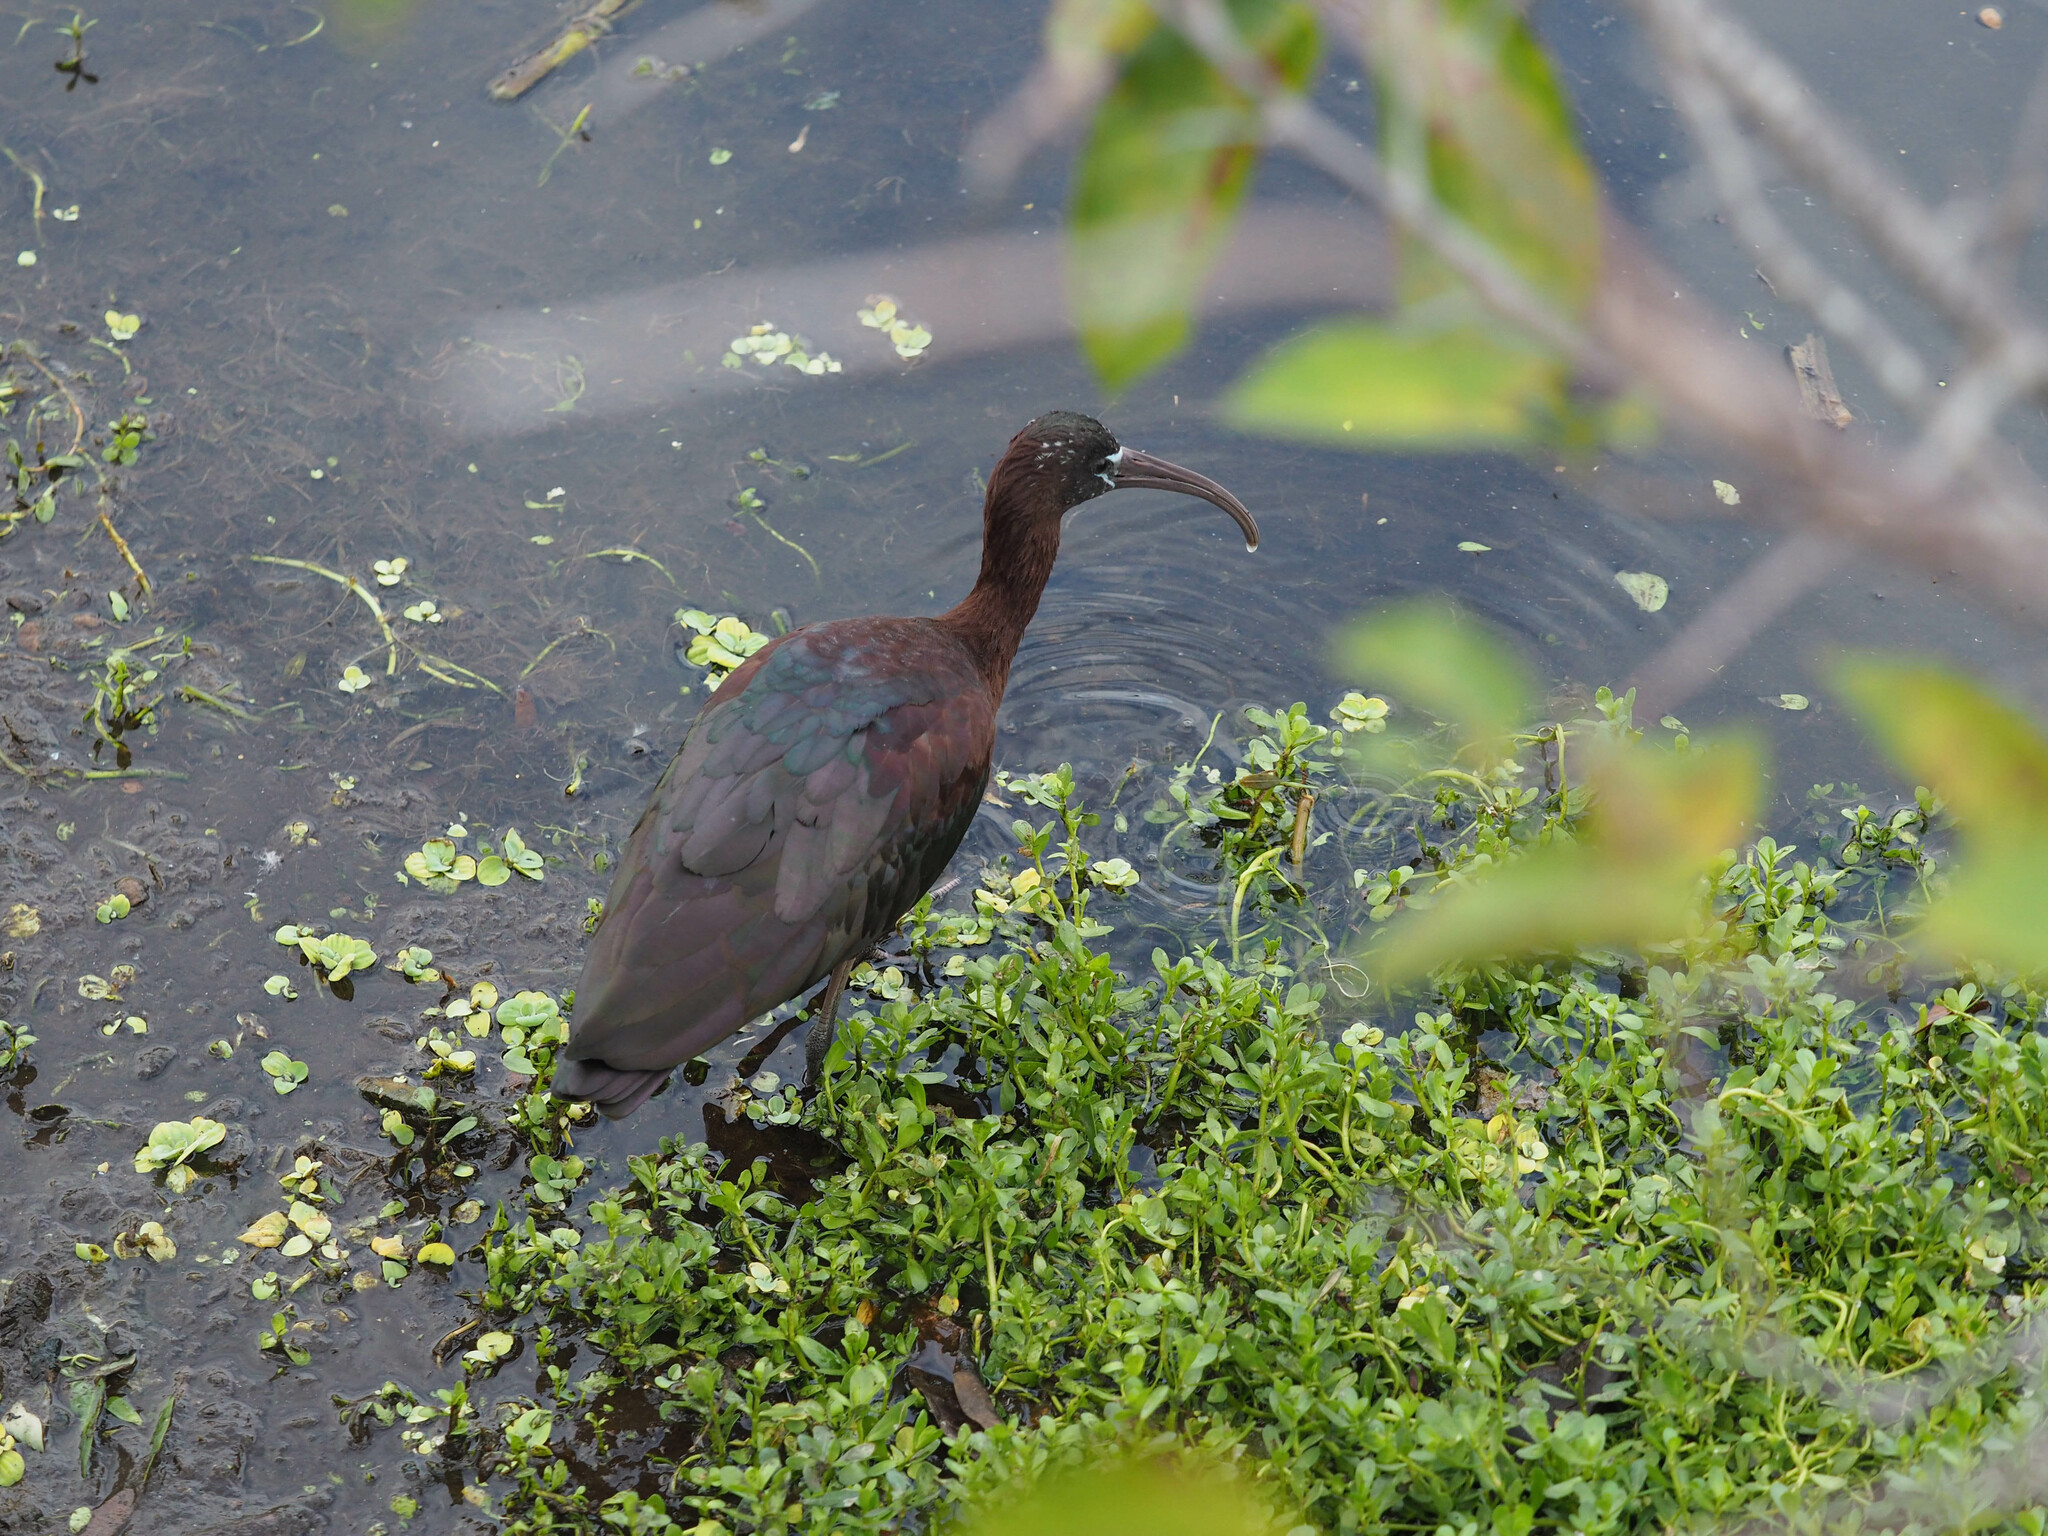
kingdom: Animalia
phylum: Chordata
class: Aves
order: Pelecaniformes
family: Threskiornithidae
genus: Plegadis
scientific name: Plegadis falcinellus
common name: Glossy ibis
